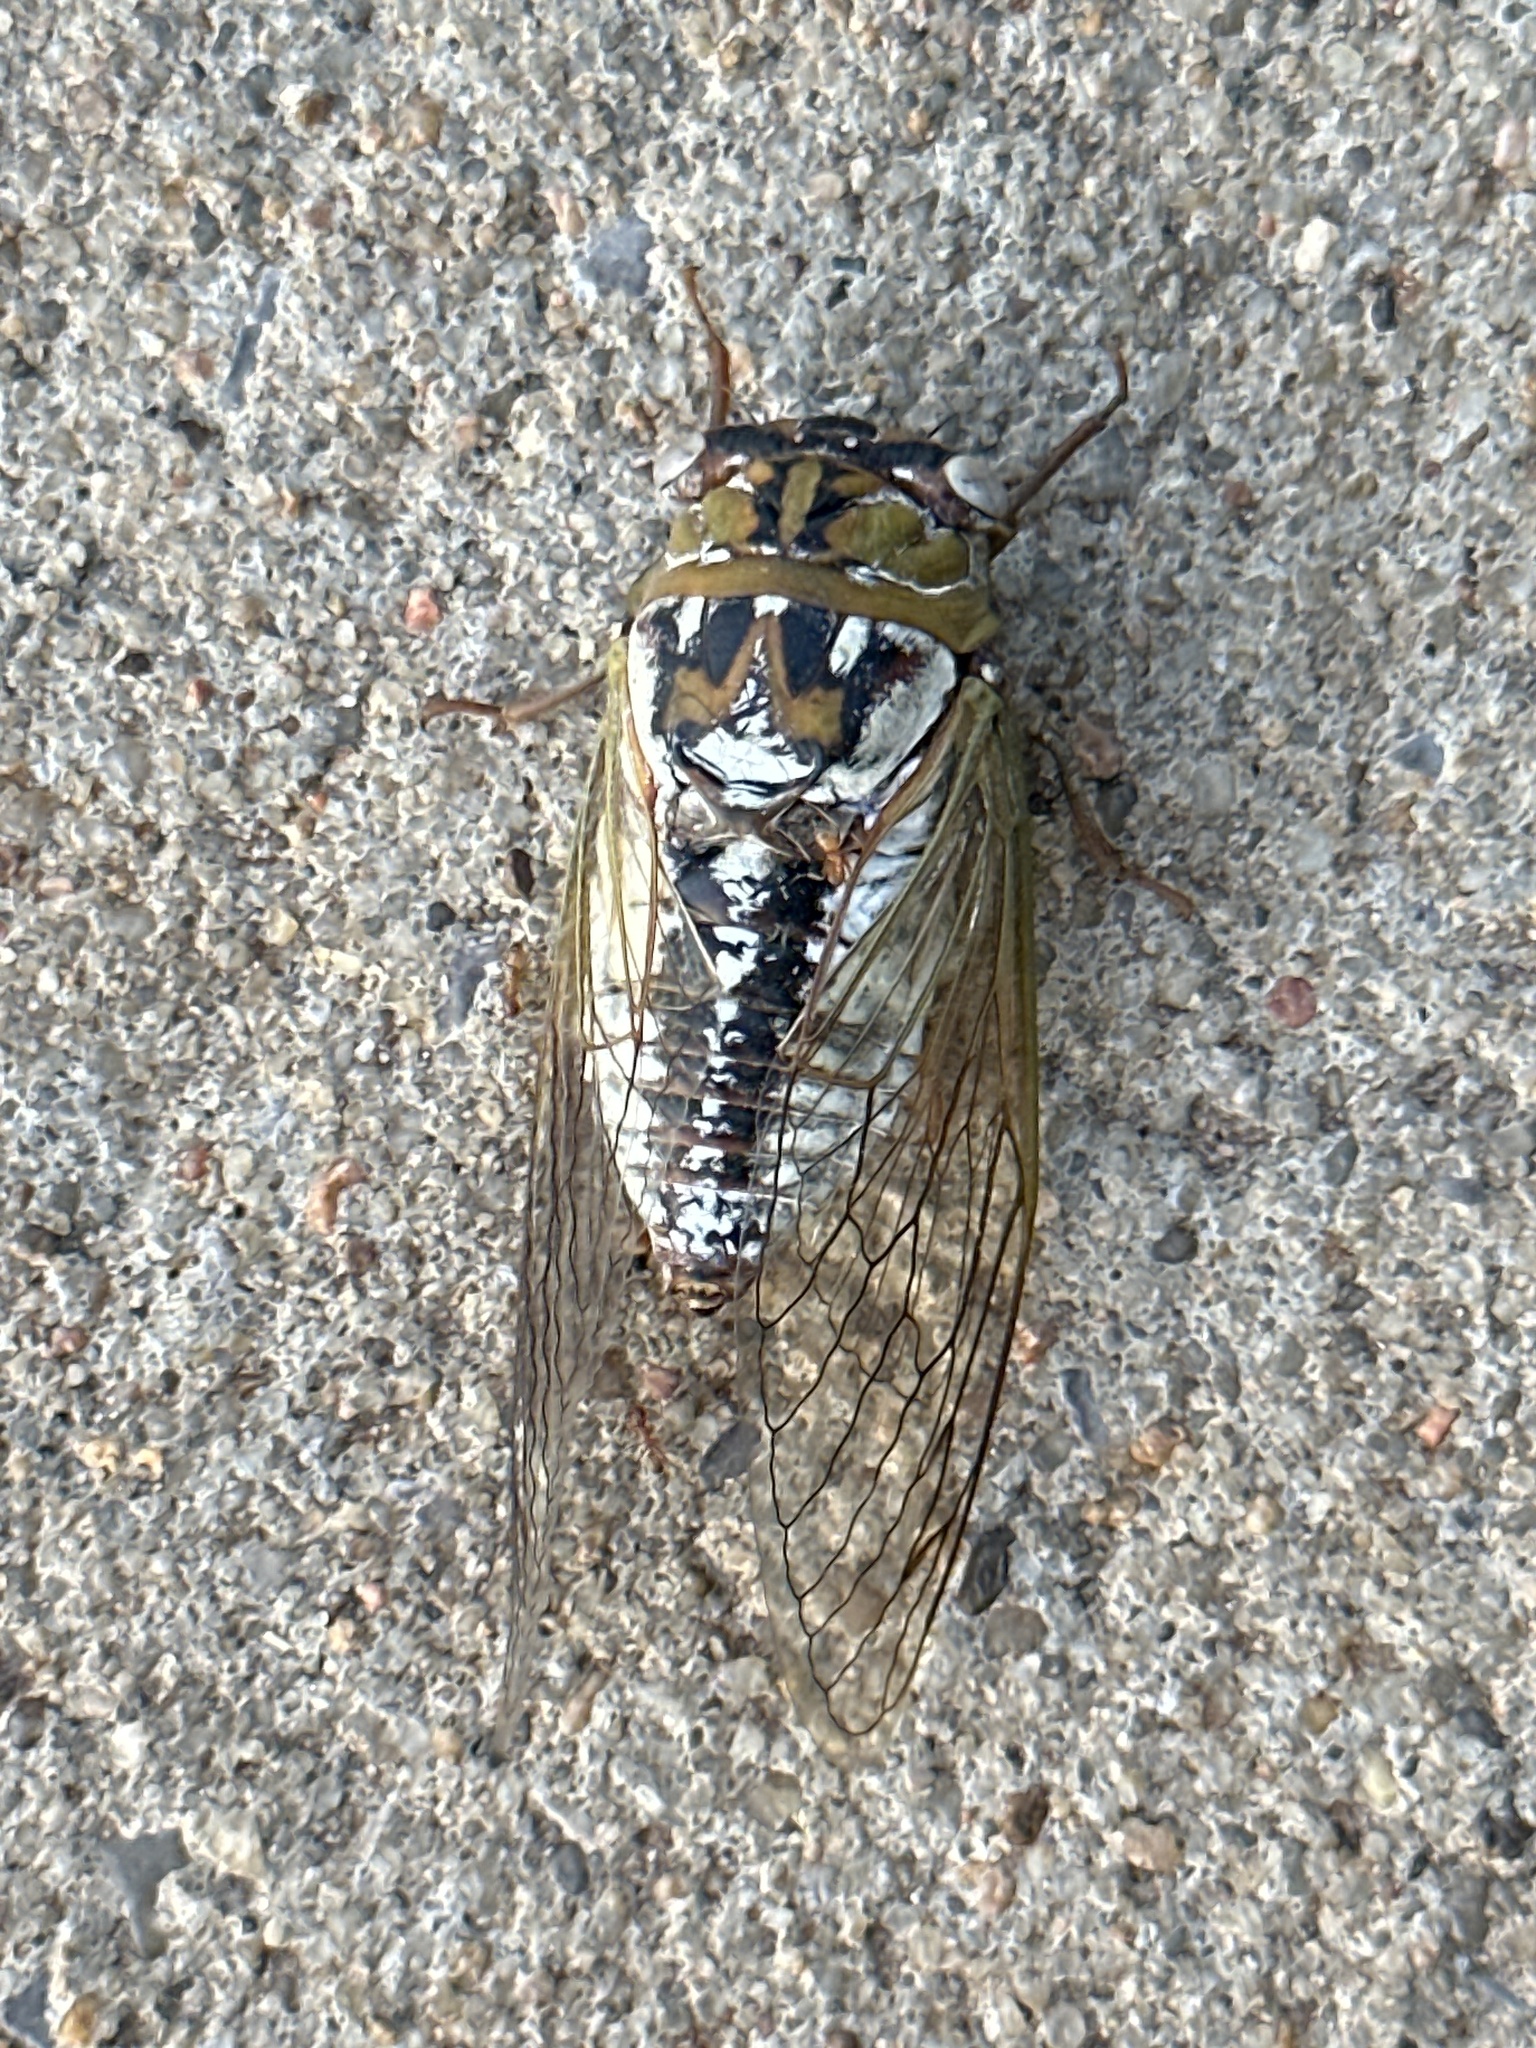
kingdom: Animalia
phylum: Arthropoda
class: Insecta
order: Hemiptera
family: Cicadidae
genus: Megatibicen
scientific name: Megatibicen dealbatus
